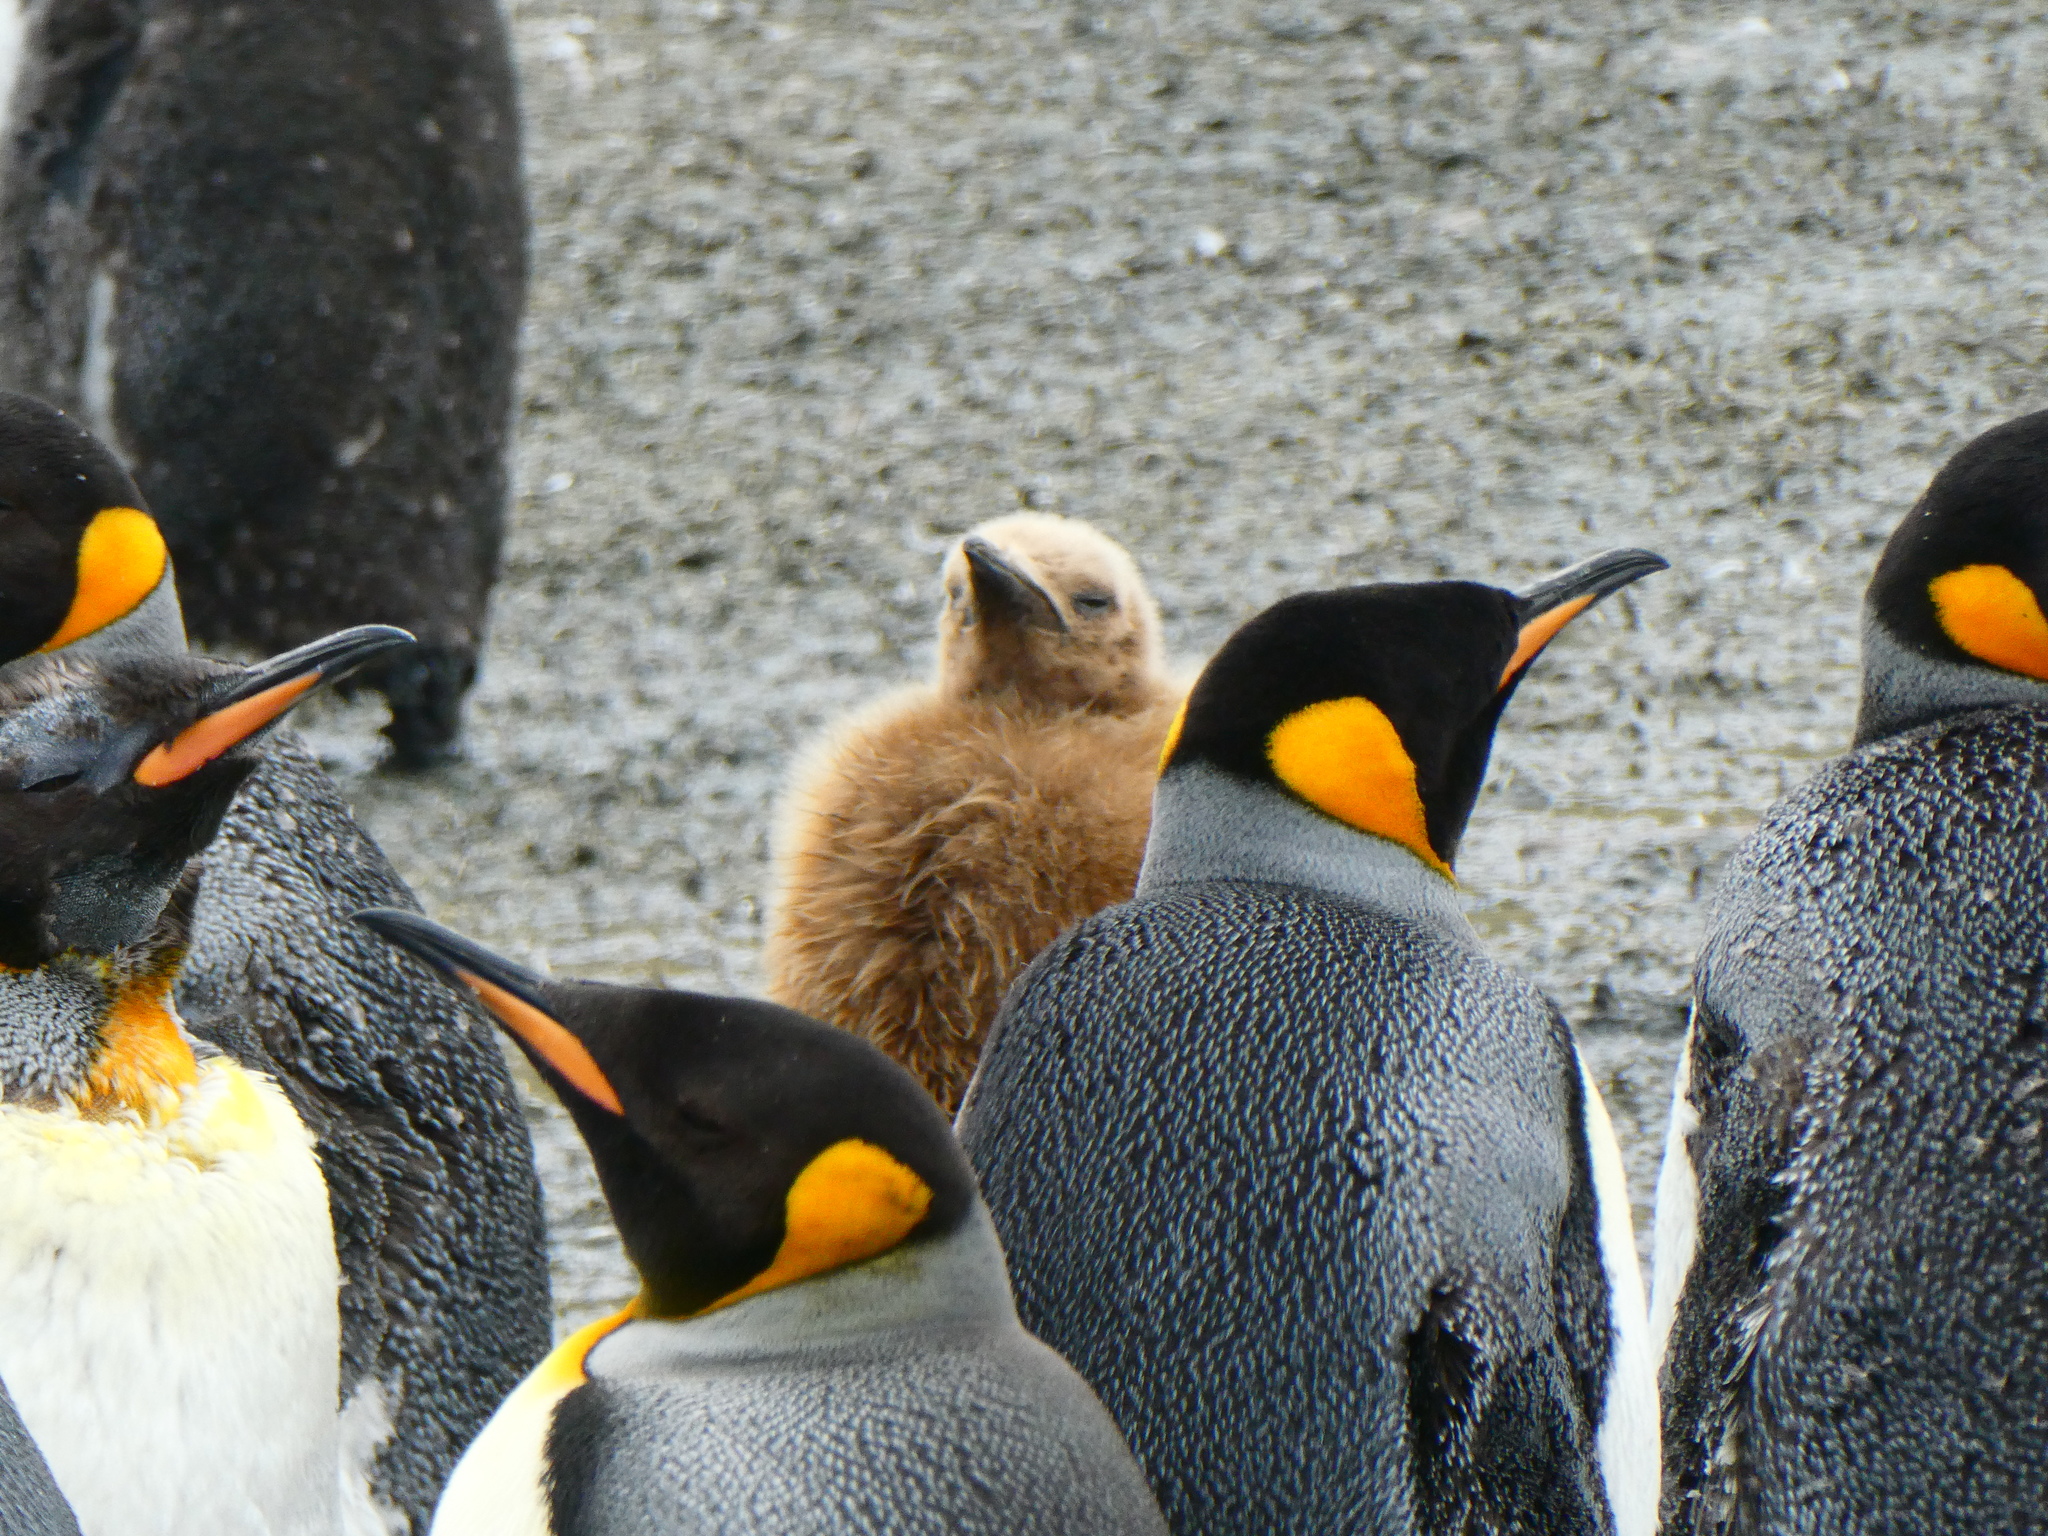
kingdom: Animalia
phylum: Chordata
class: Aves
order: Sphenisciformes
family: Spheniscidae
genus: Aptenodytes
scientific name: Aptenodytes patagonicus
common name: King penguin
